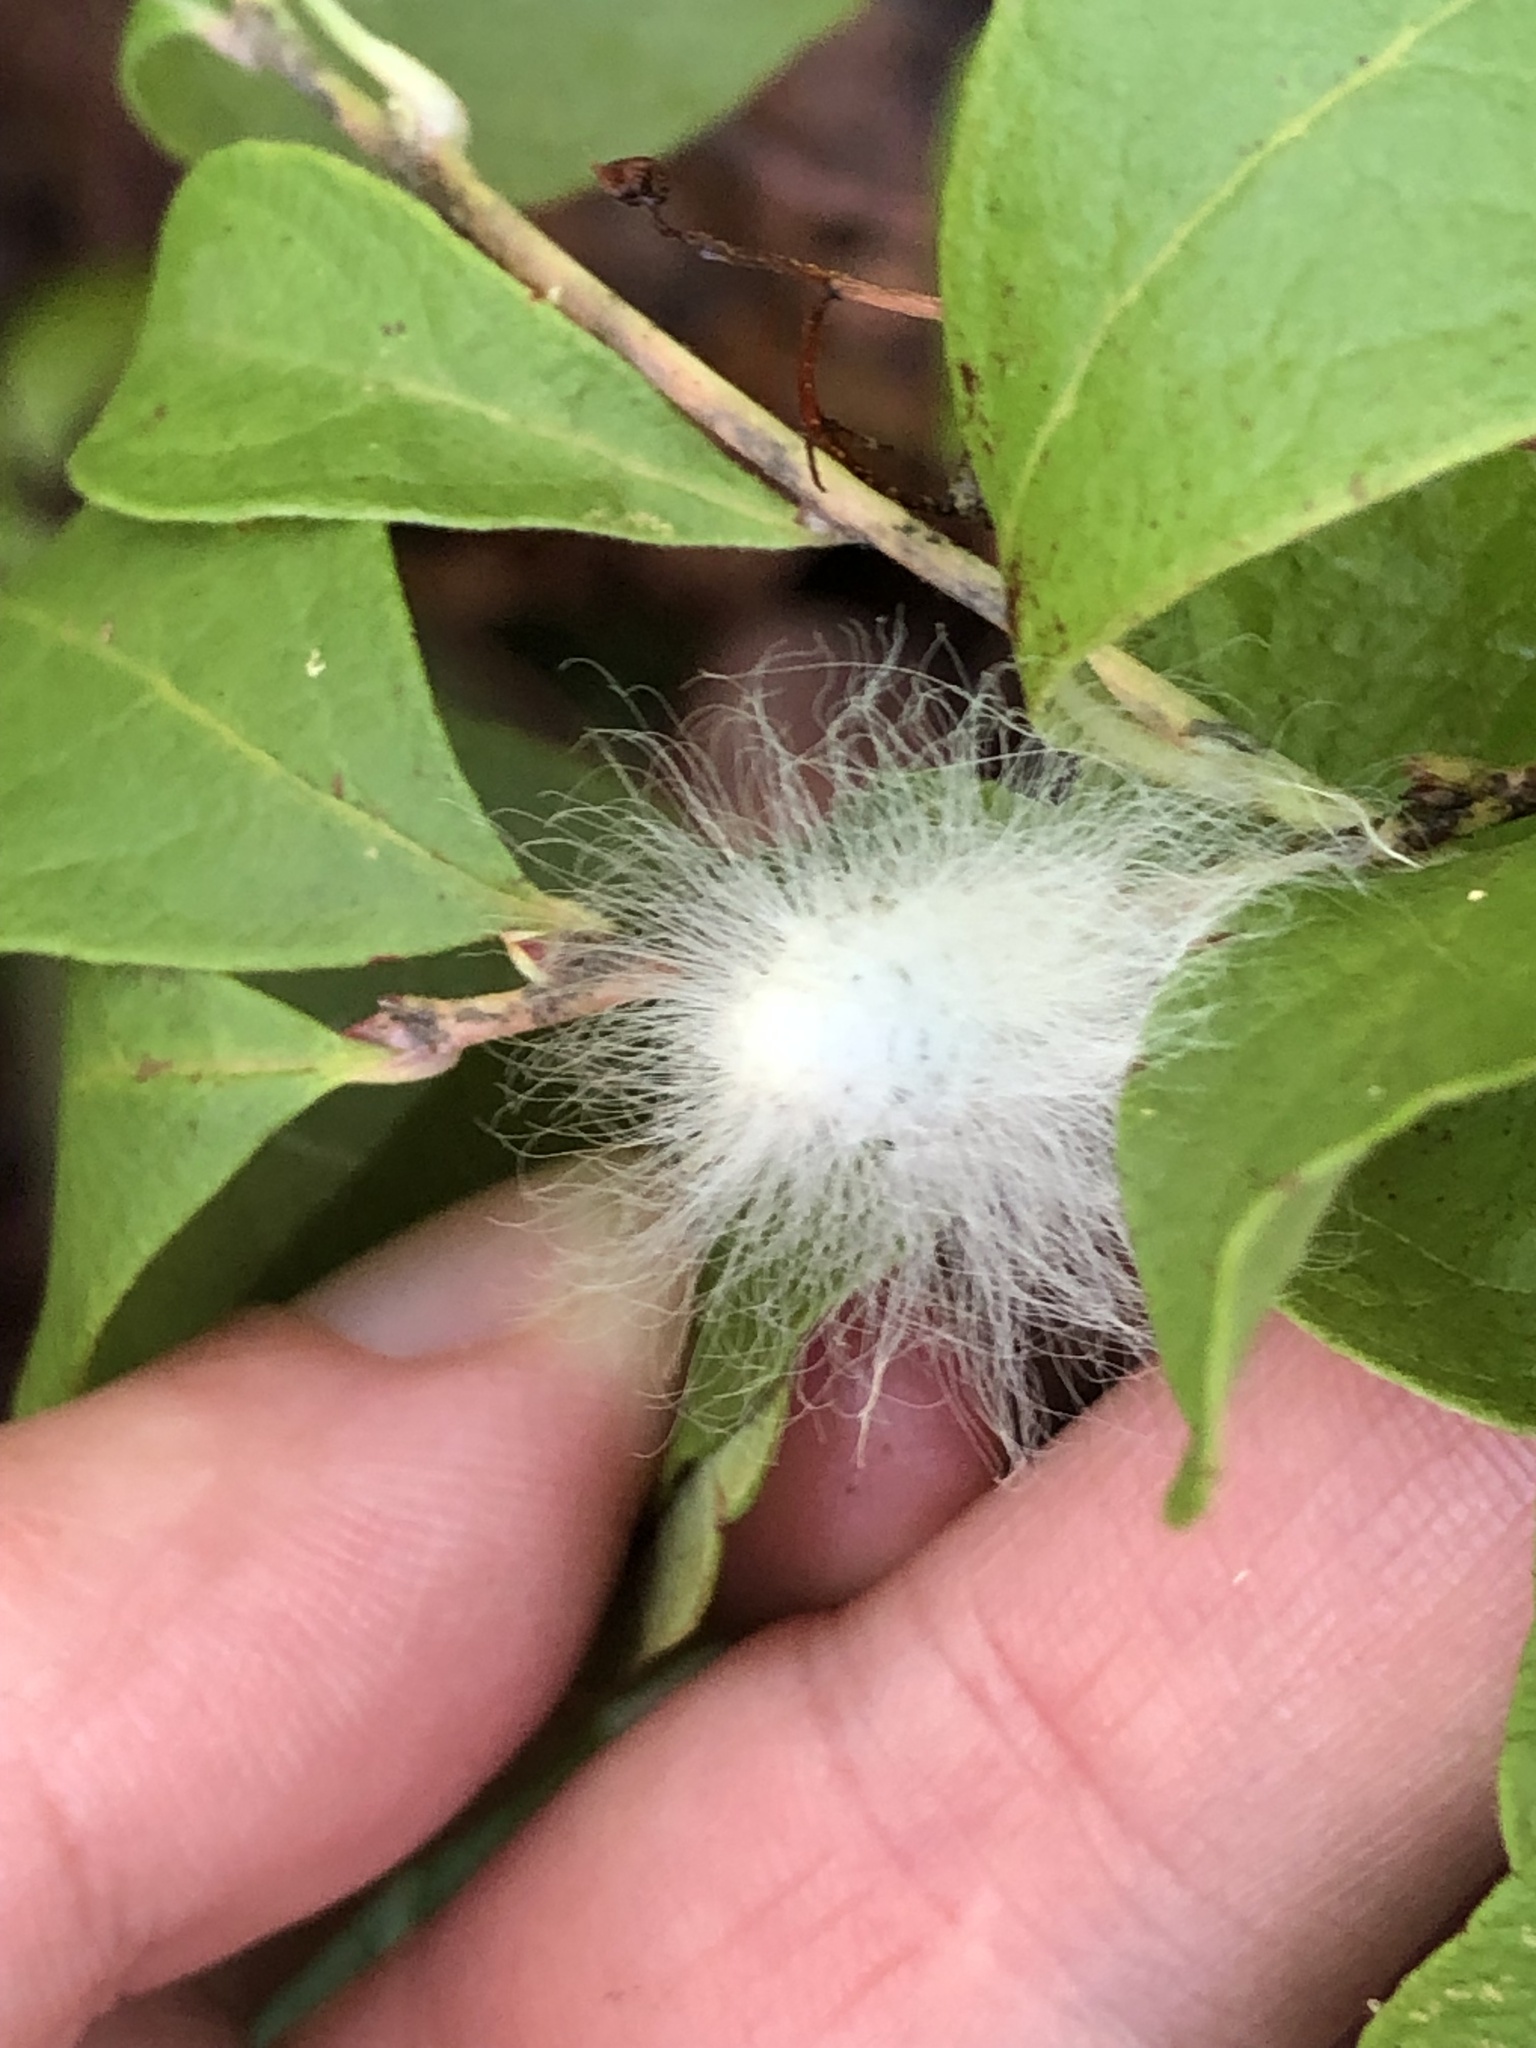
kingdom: Animalia
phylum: Arthropoda
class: Insecta
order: Lepidoptera
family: Megalopygidae
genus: Megalopyge
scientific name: Megalopyge crispata
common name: Black-waved flannel moth
